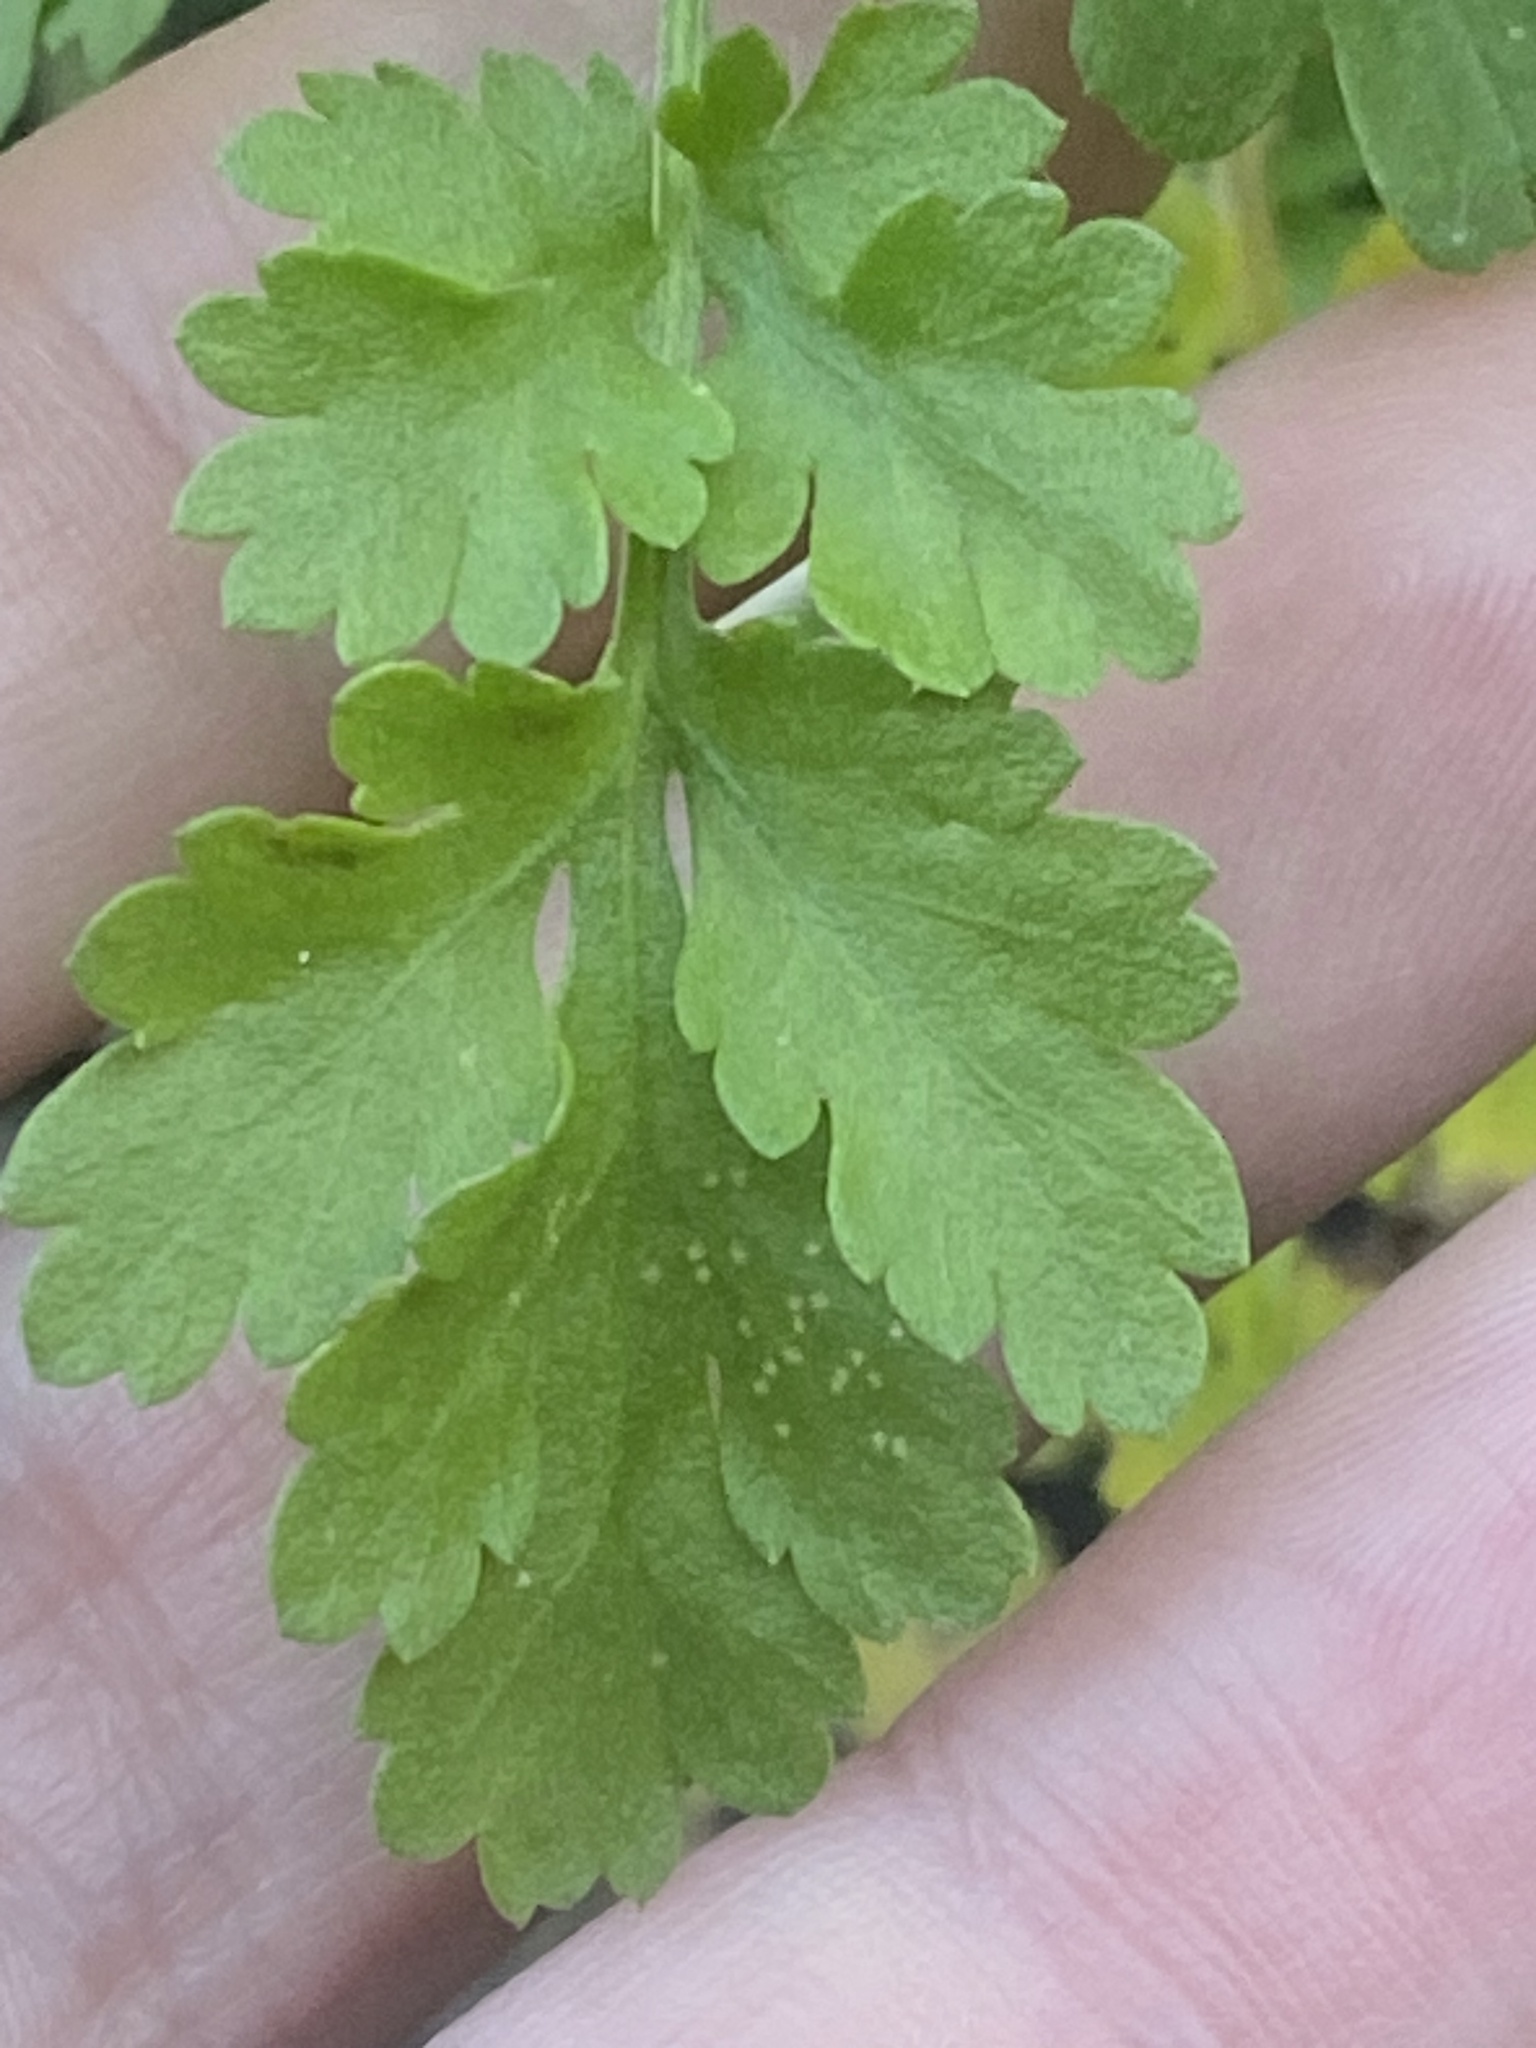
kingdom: Plantae
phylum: Tracheophyta
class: Magnoliopsida
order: Asterales
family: Asteraceae
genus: Tanacetum
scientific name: Tanacetum parthenium
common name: Feverfew
